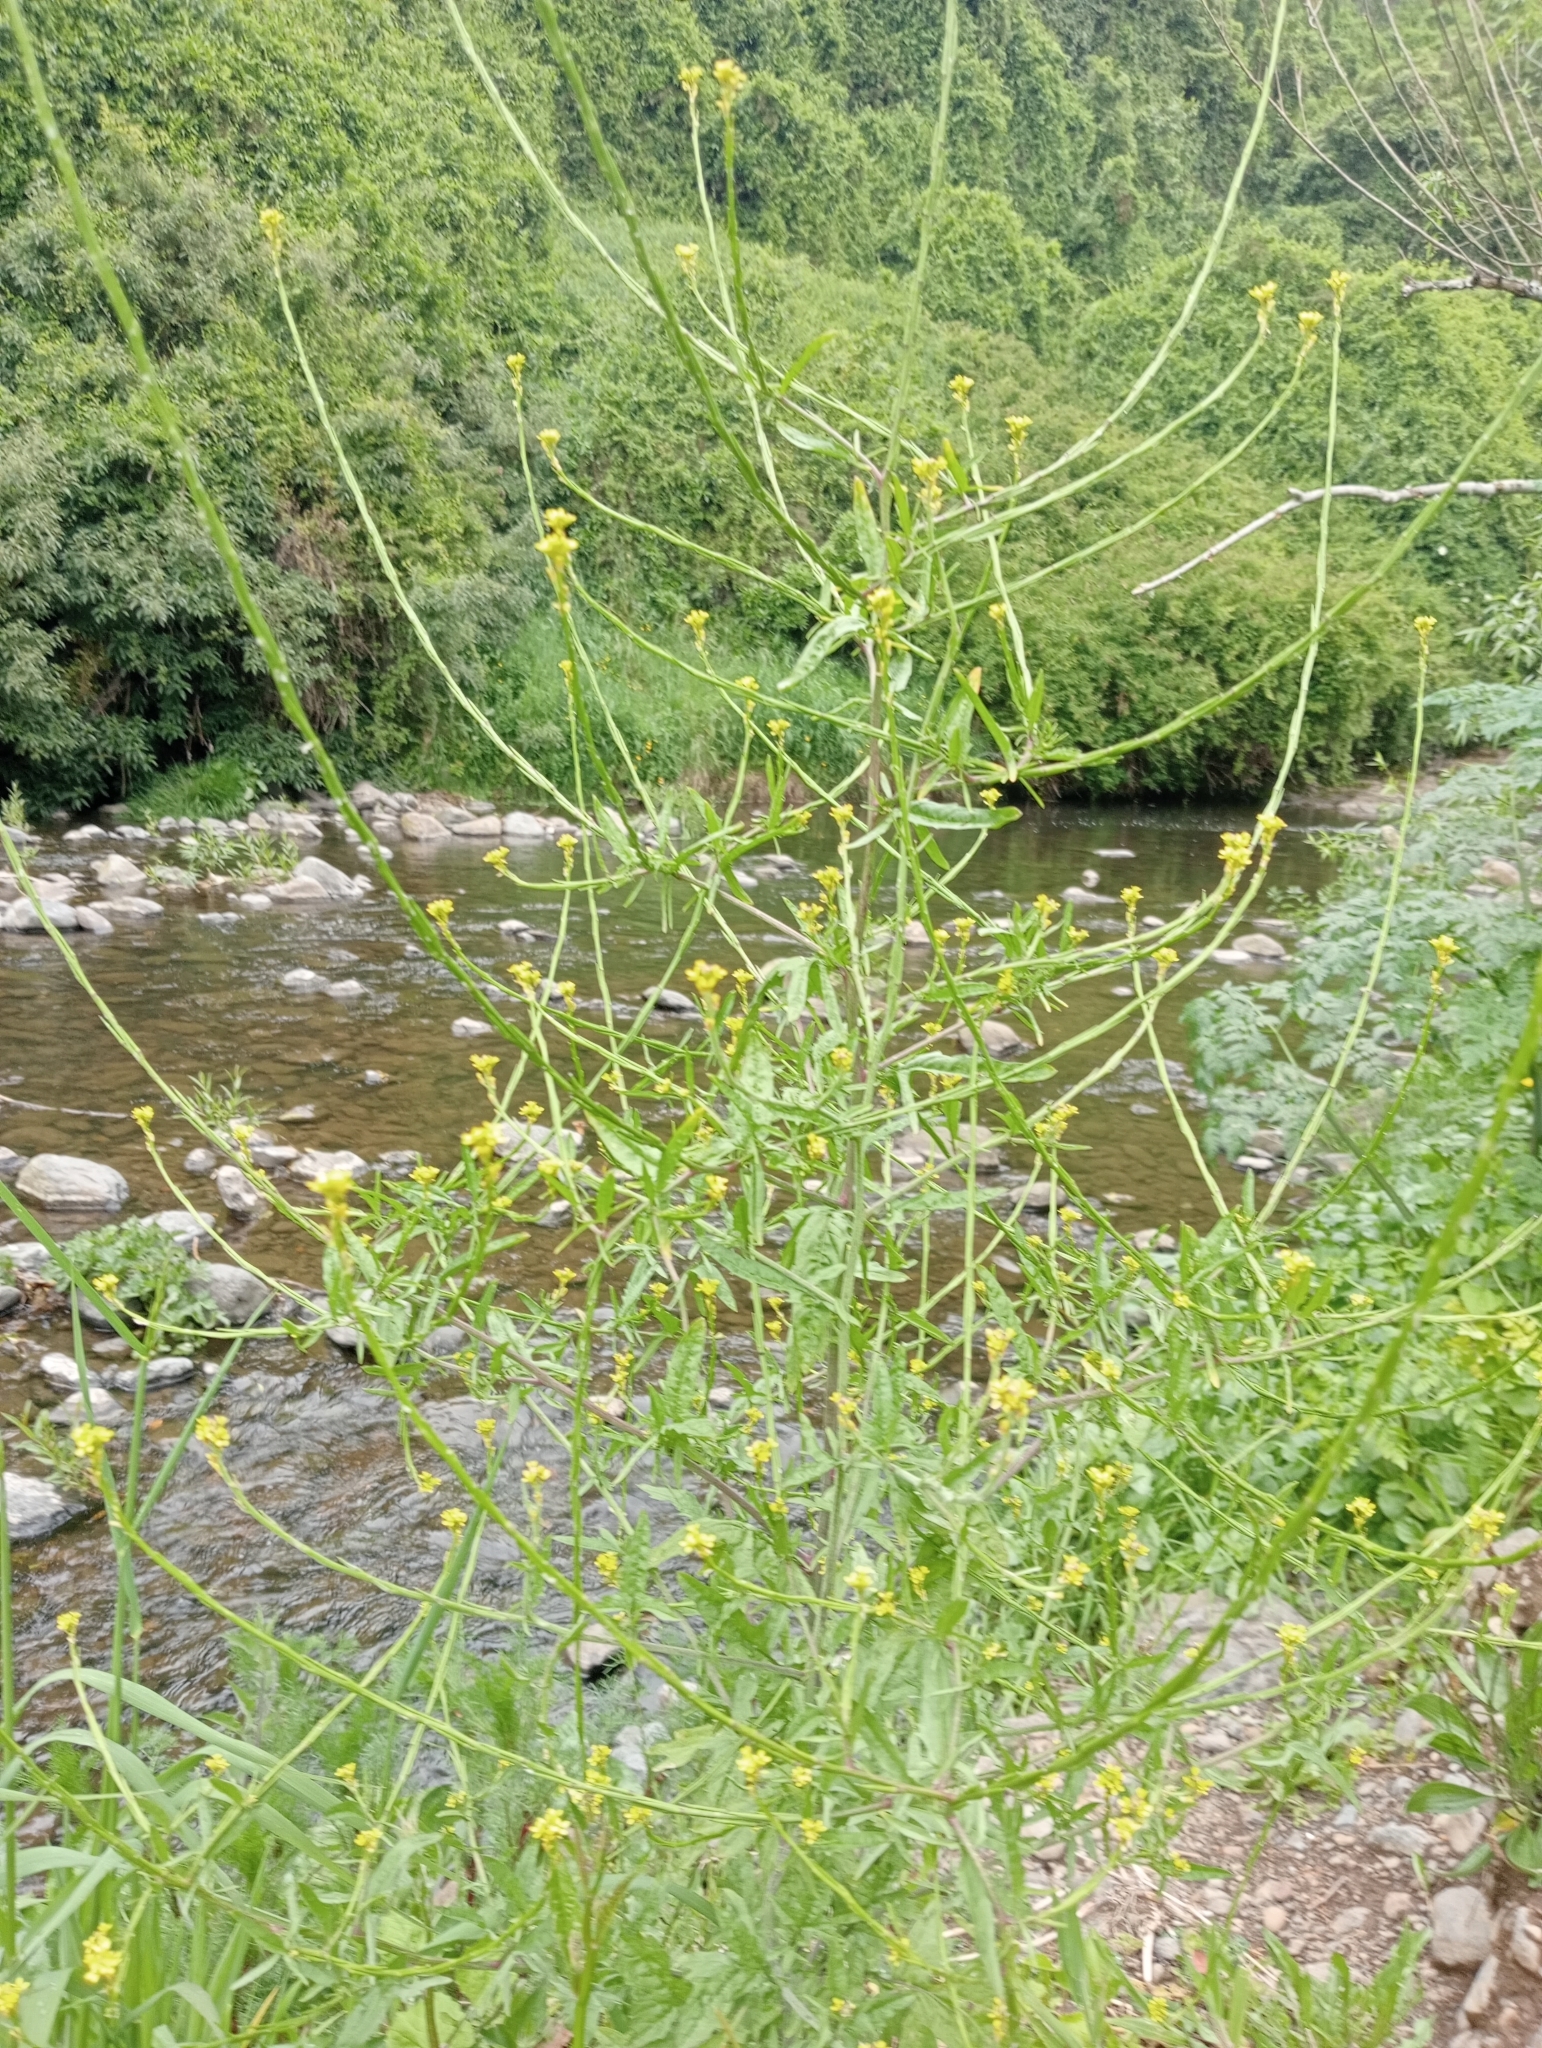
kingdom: Plantae
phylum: Tracheophyta
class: Magnoliopsida
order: Brassicales
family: Brassicaceae
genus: Sisymbrium
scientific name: Sisymbrium officinale
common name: Hedge mustard
